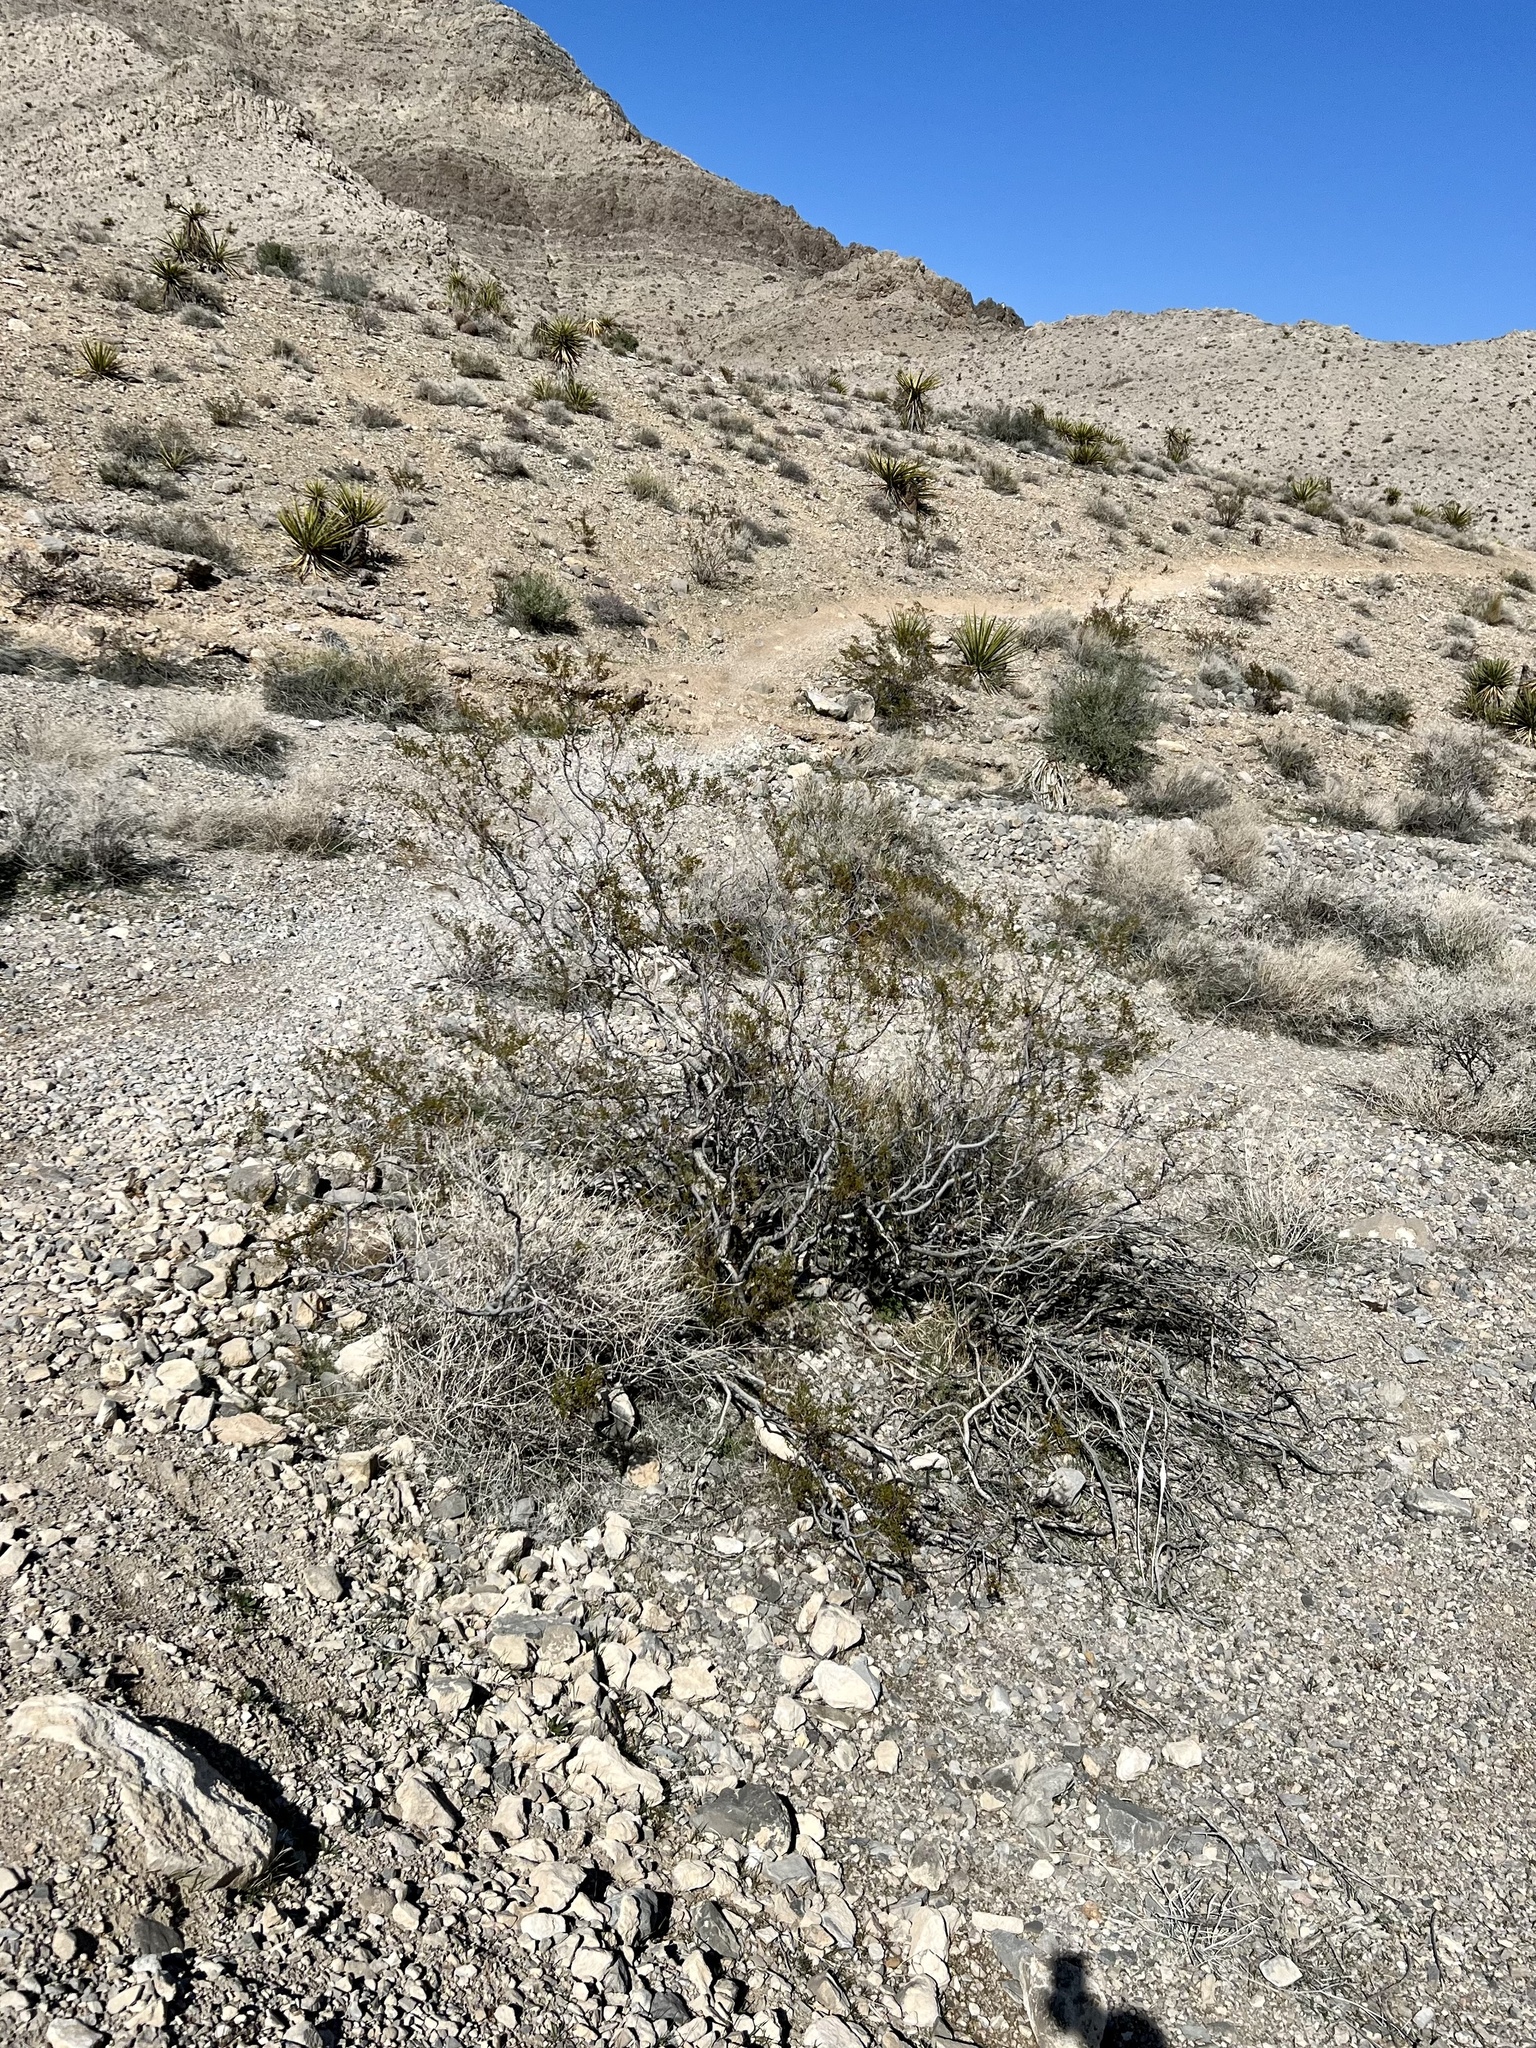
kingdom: Plantae
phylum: Tracheophyta
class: Magnoliopsida
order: Zygophyllales
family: Zygophyllaceae
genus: Larrea
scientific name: Larrea tridentata
